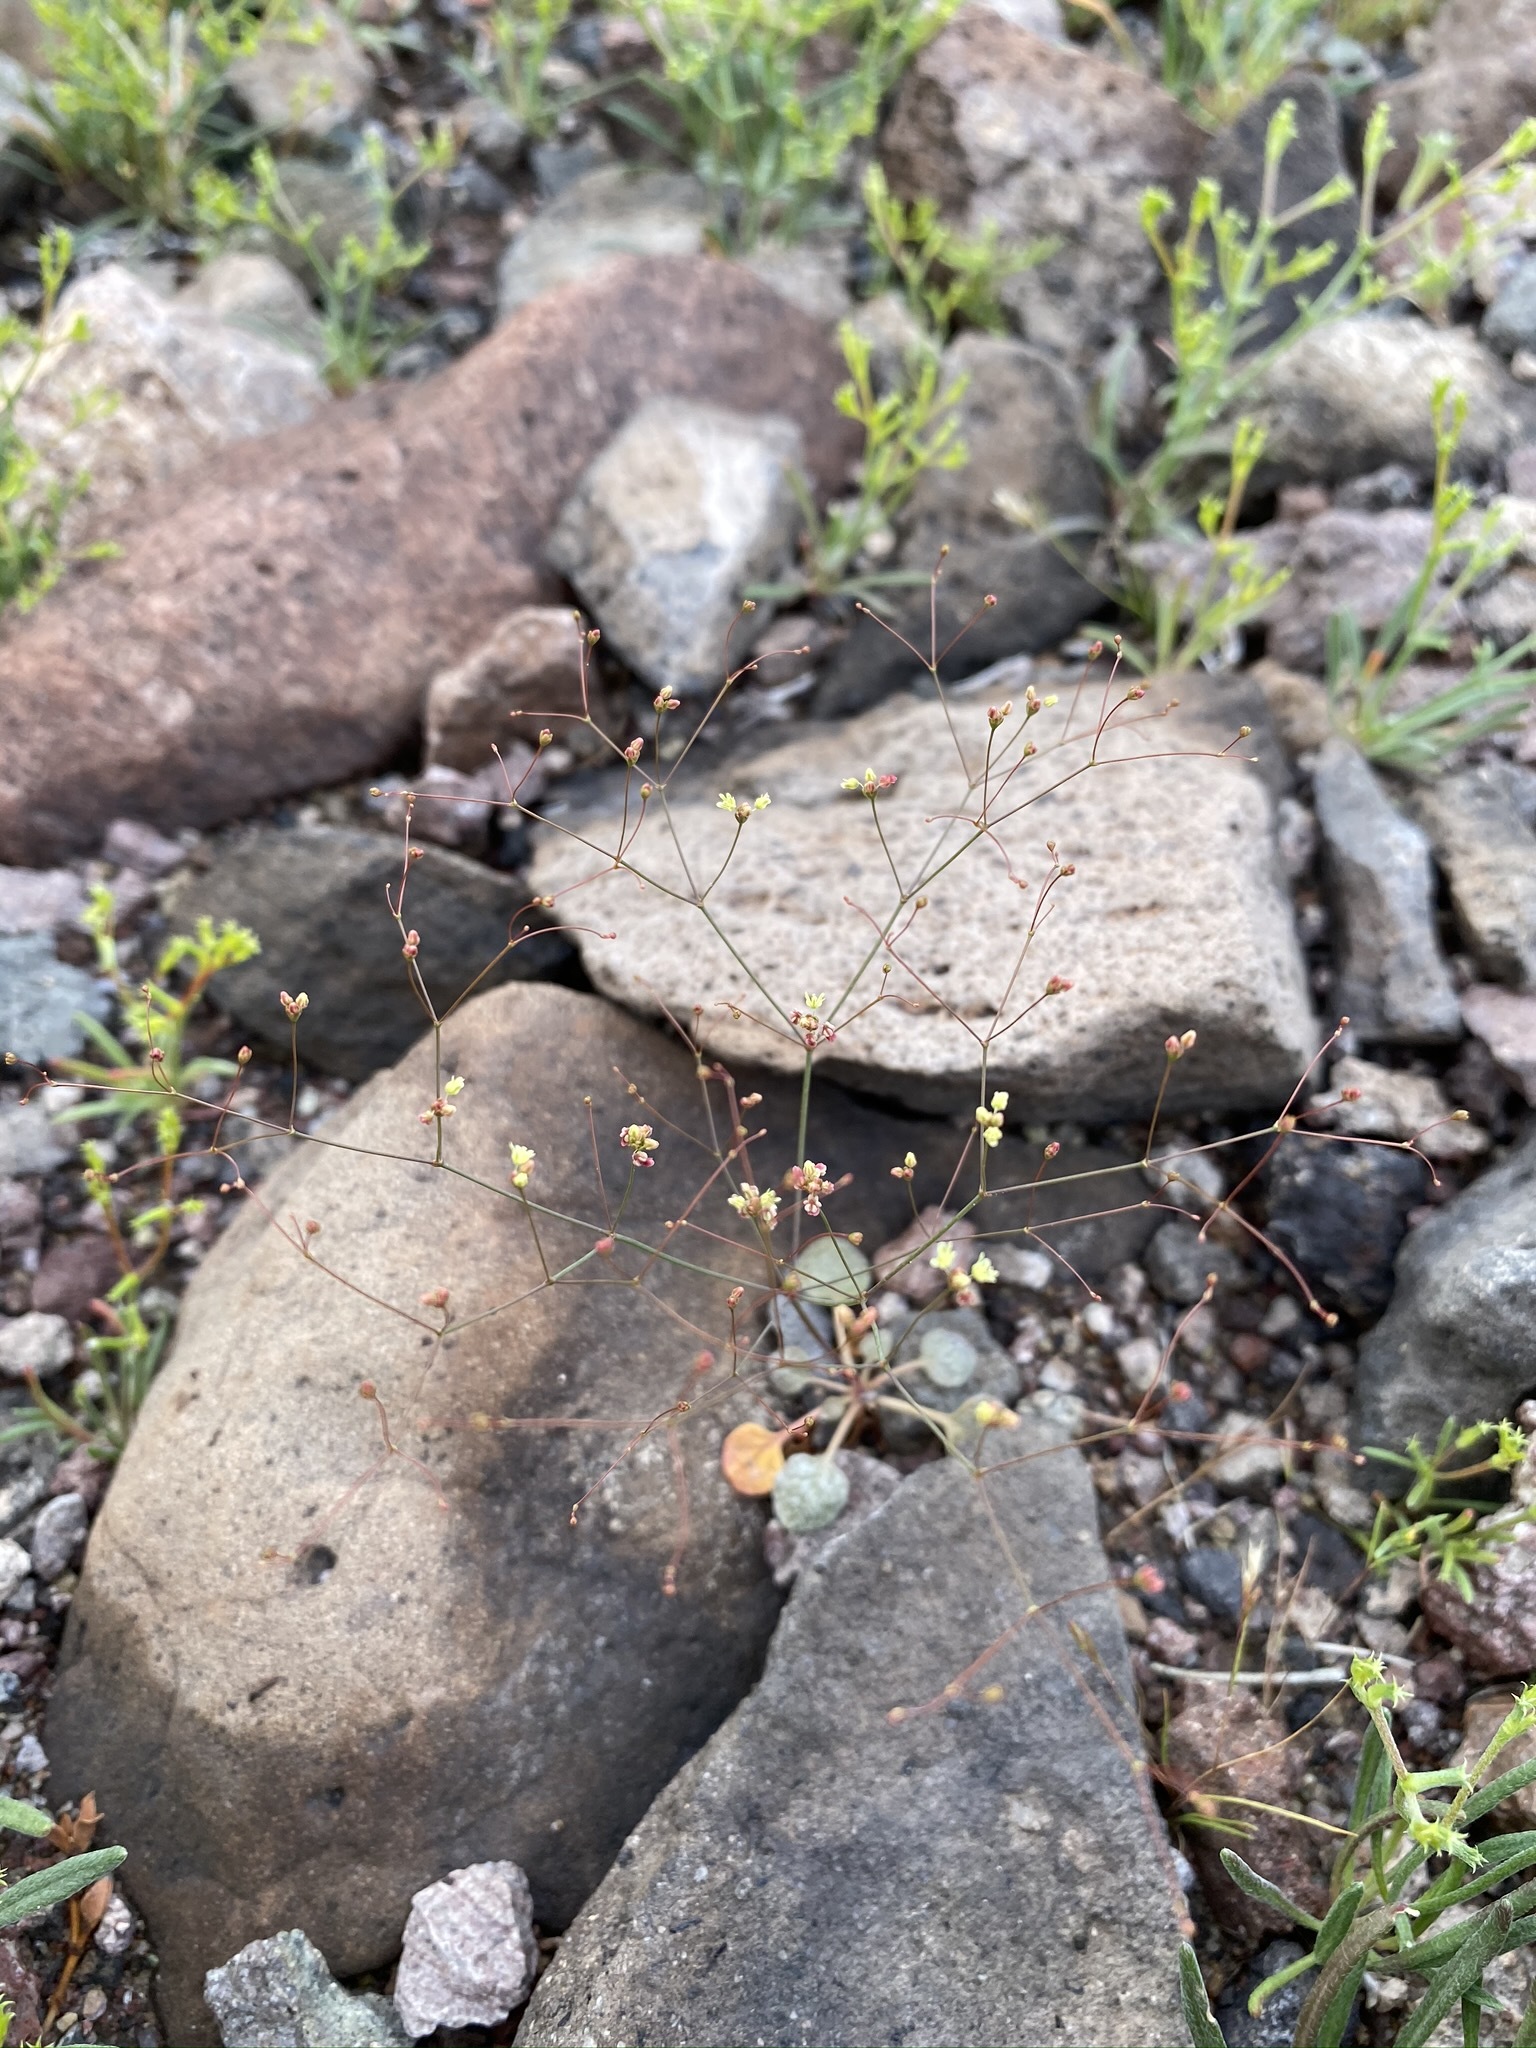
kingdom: Plantae
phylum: Tracheophyta
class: Magnoliopsida
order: Caryophyllales
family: Polygonaceae
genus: Eriogonum
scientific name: Eriogonum thomasii
